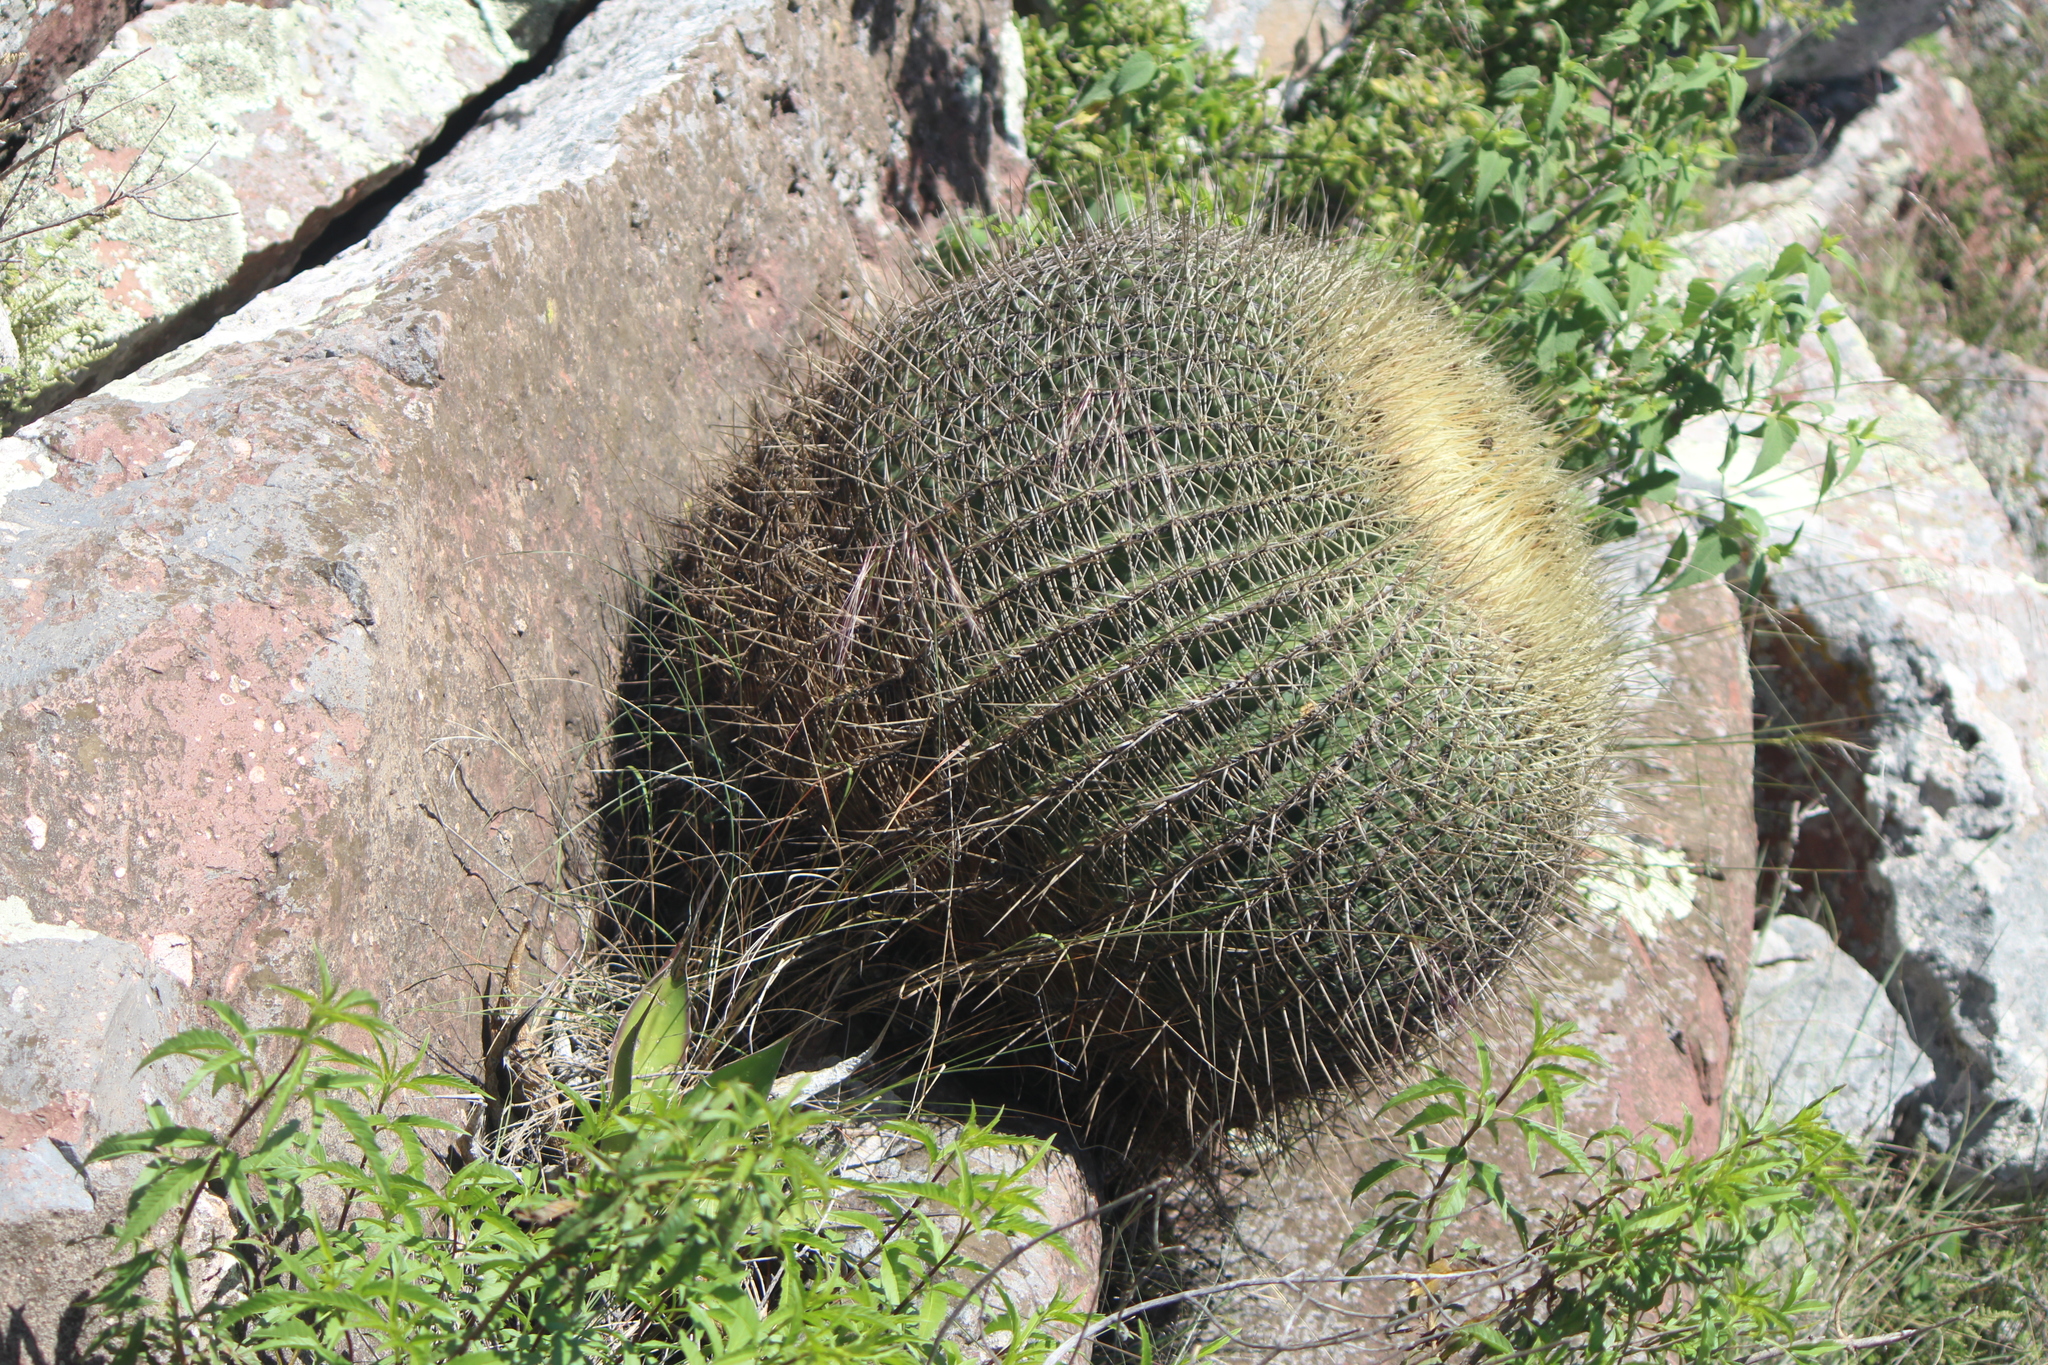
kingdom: Plantae
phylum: Tracheophyta
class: Magnoliopsida
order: Caryophyllales
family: Cactaceae
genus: Bisnaga
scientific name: Bisnaga histrix
